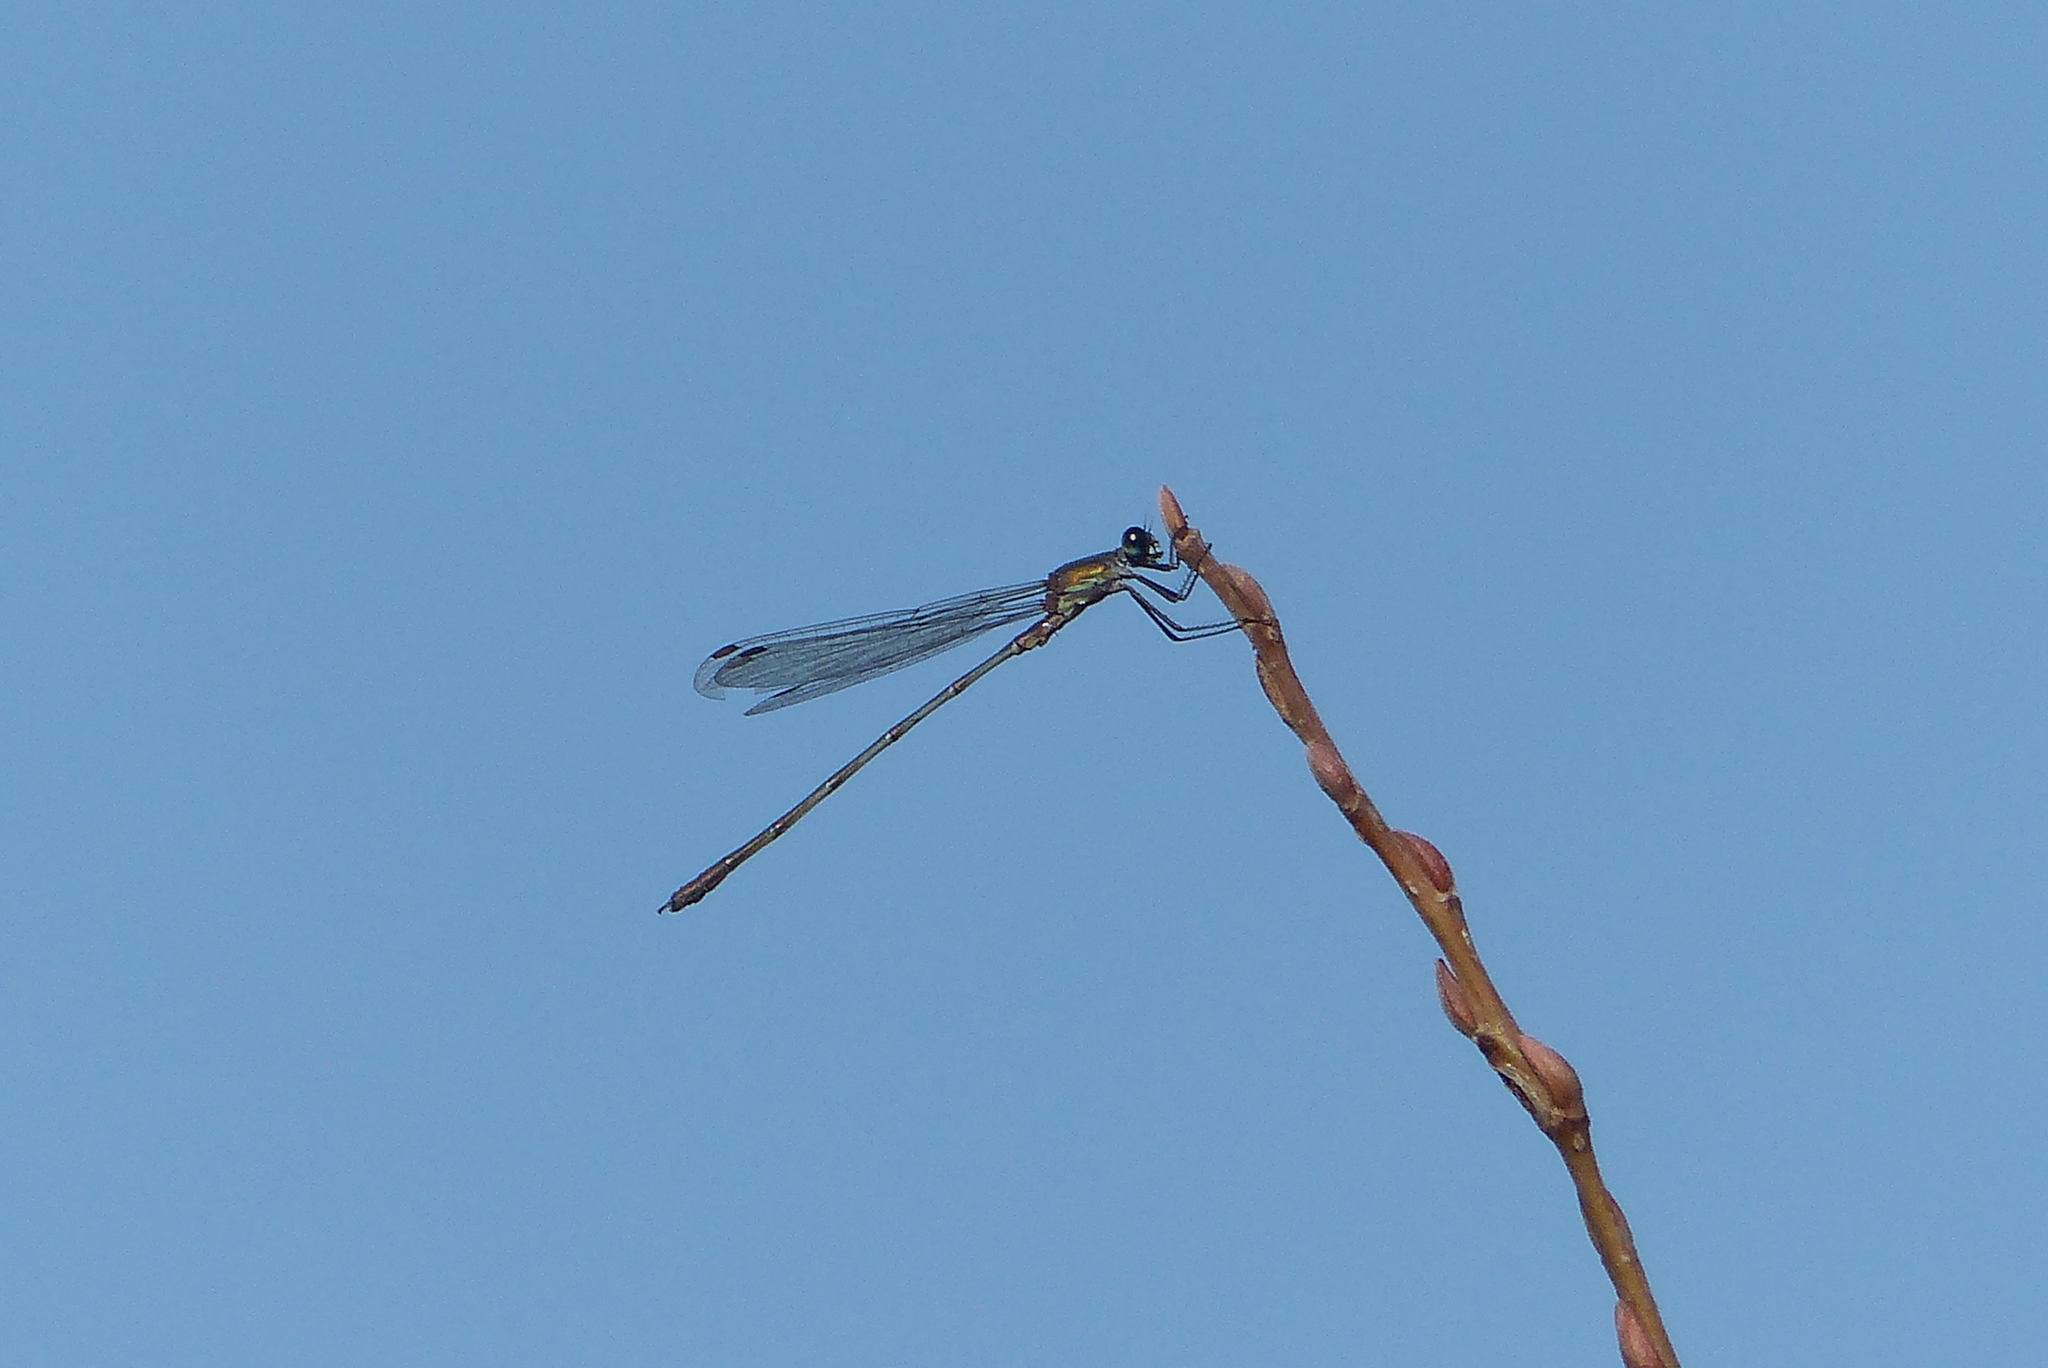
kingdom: Animalia
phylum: Arthropoda
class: Insecta
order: Odonata
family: Lestidae
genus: Chalcolestes
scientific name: Chalcolestes viridis
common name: Green emerald damselfly
